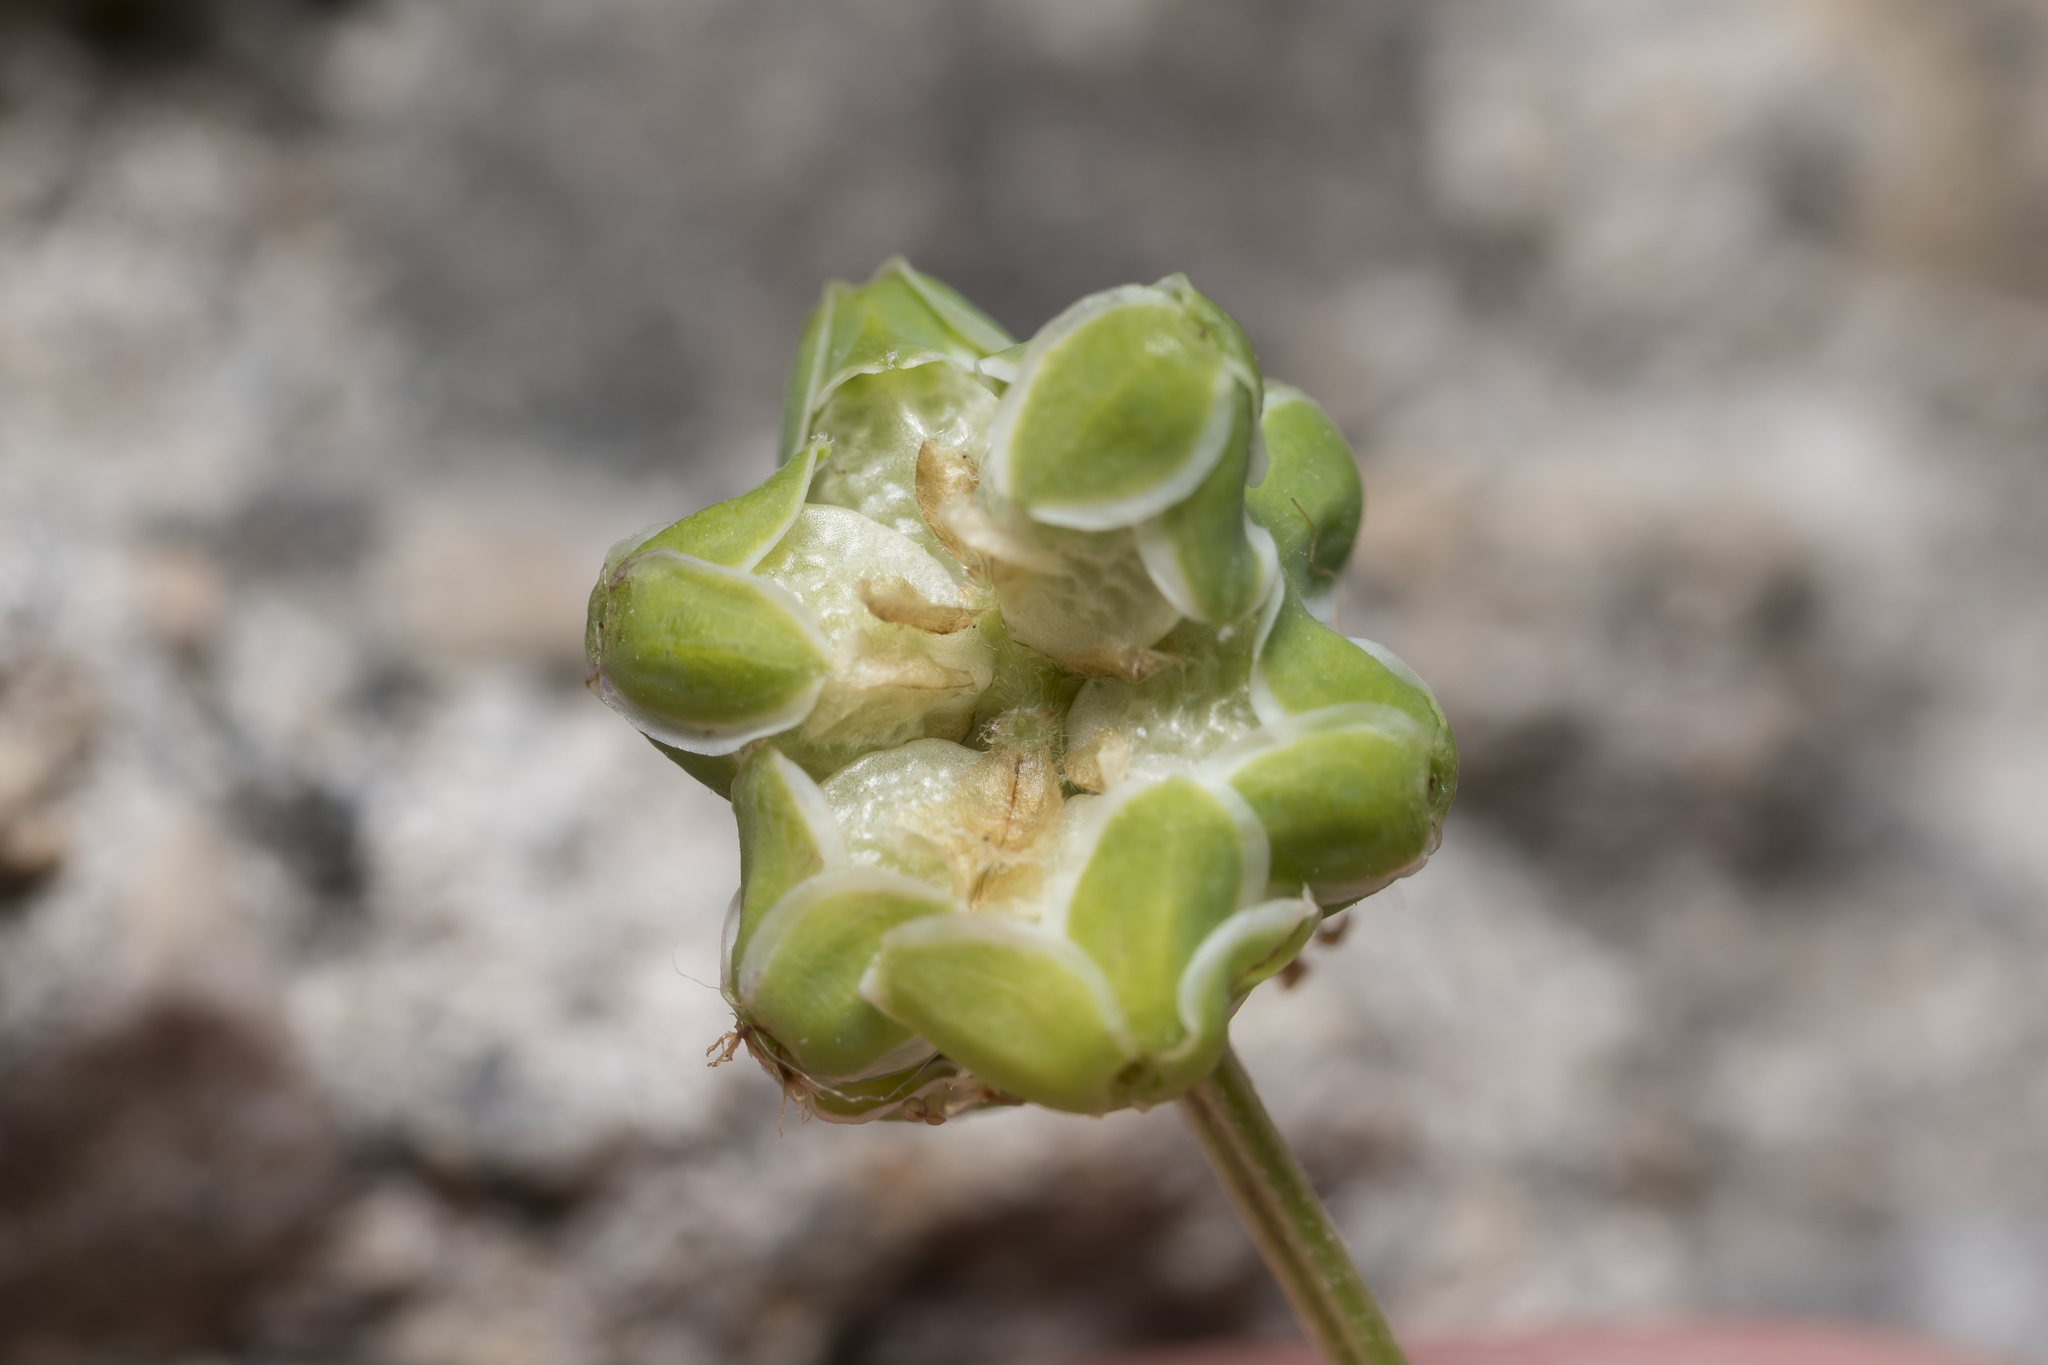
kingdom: Plantae
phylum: Tracheophyta
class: Magnoliopsida
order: Rosales
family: Rosaceae
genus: Poterium
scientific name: Poterium sanguisorba
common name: Salad burnet
